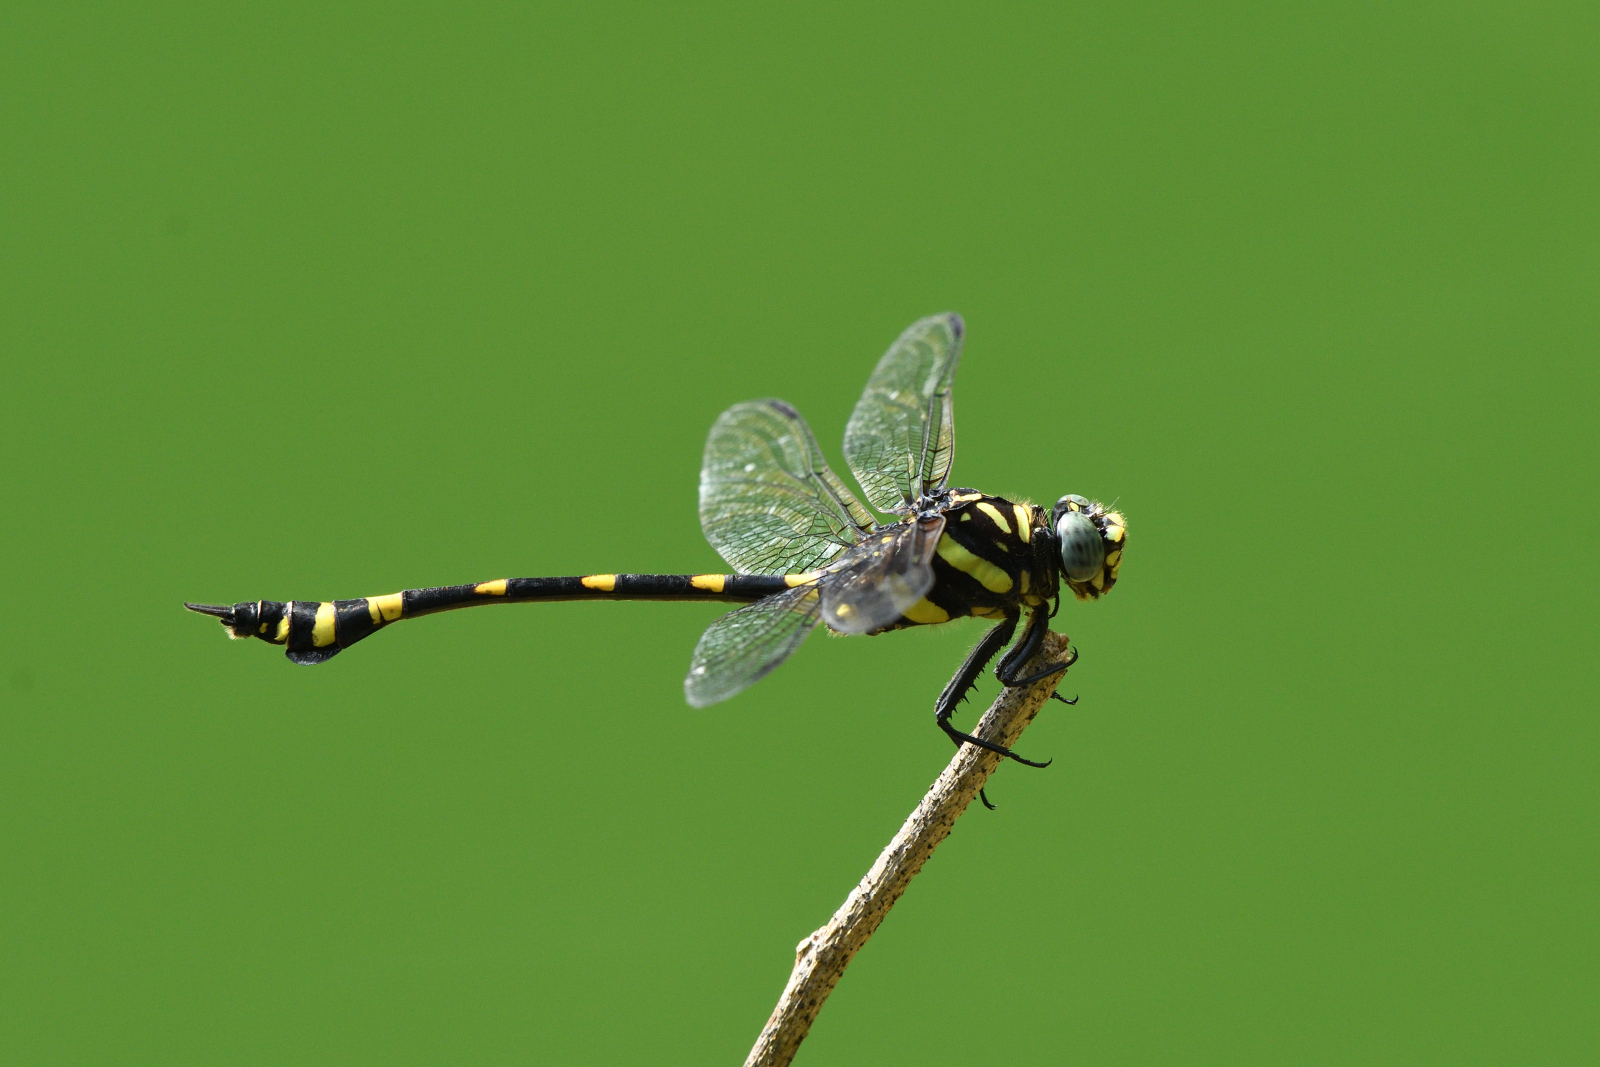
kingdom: Animalia
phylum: Arthropoda
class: Insecta
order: Odonata
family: Gomphidae
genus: Ictinogomphus
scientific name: Ictinogomphus rapax
